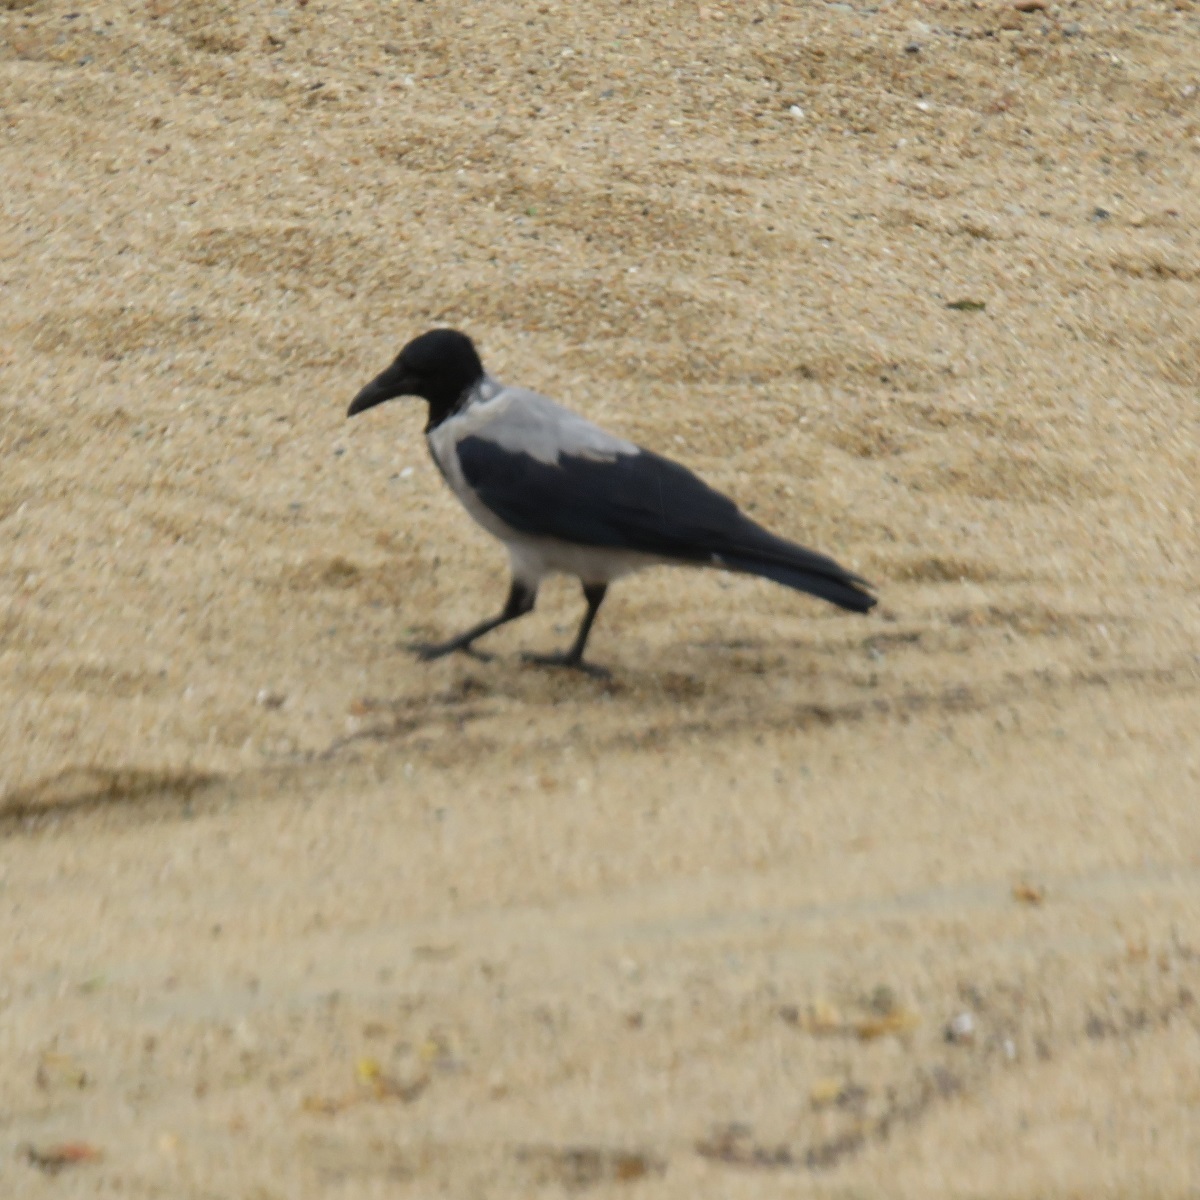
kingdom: Animalia
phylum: Chordata
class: Aves
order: Passeriformes
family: Corvidae
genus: Corvus
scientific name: Corvus cornix
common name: Hooded crow
